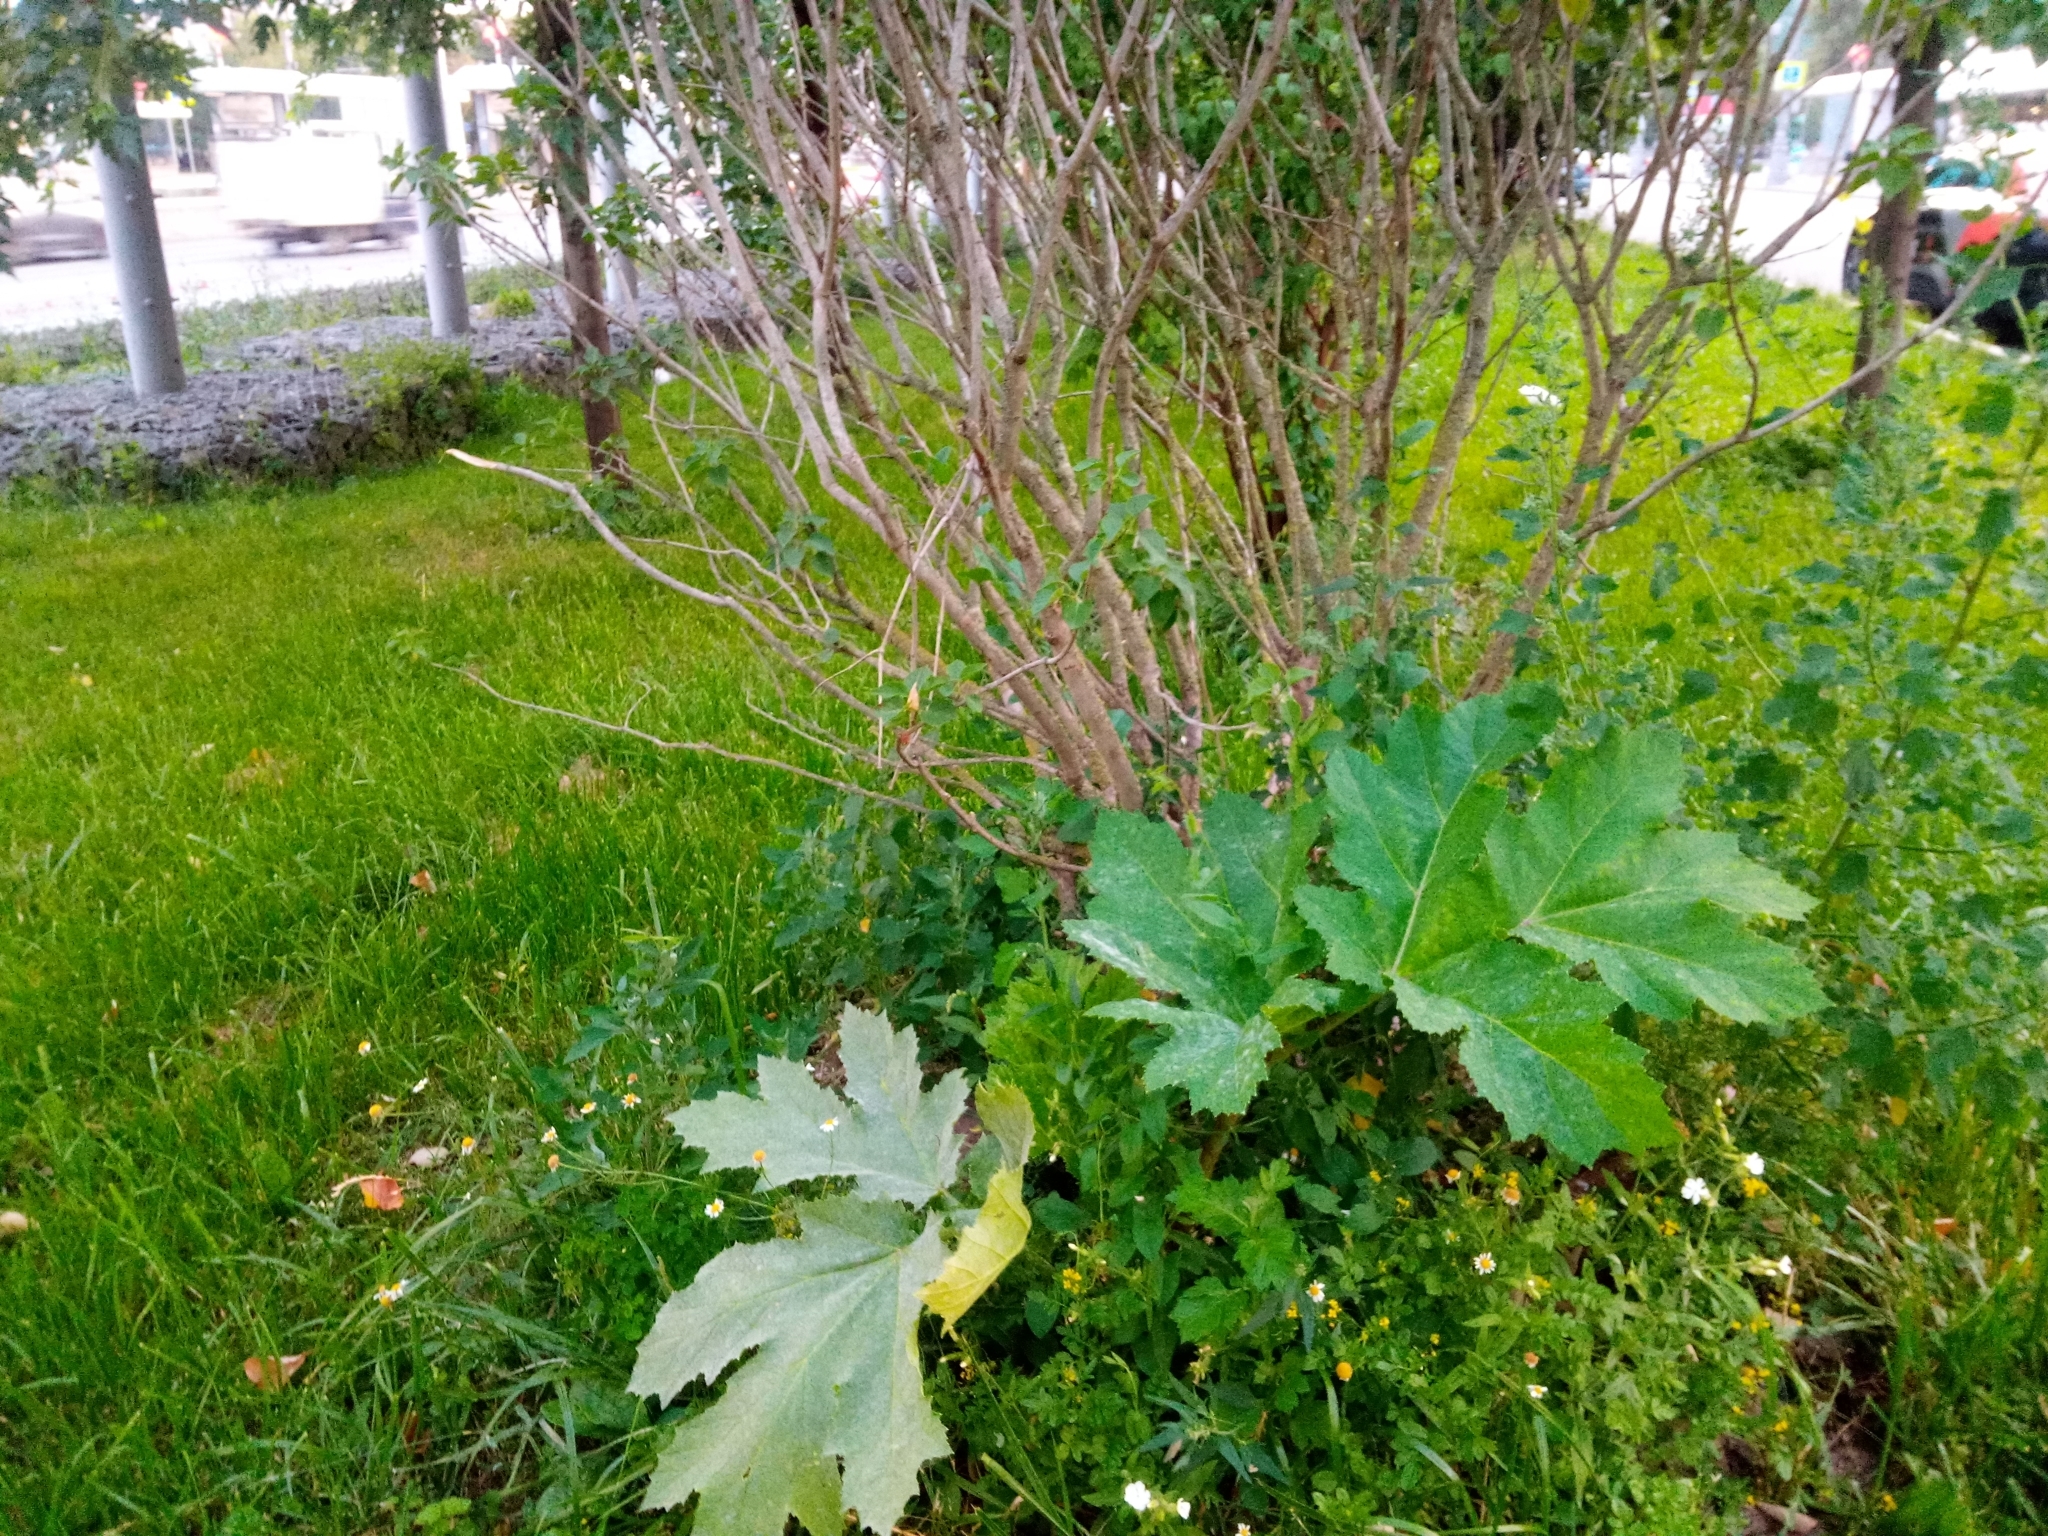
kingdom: Plantae
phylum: Tracheophyta
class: Magnoliopsida
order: Apiales
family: Apiaceae
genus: Heracleum
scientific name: Heracleum sosnowskyi
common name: Sosnowsky's hogweed
